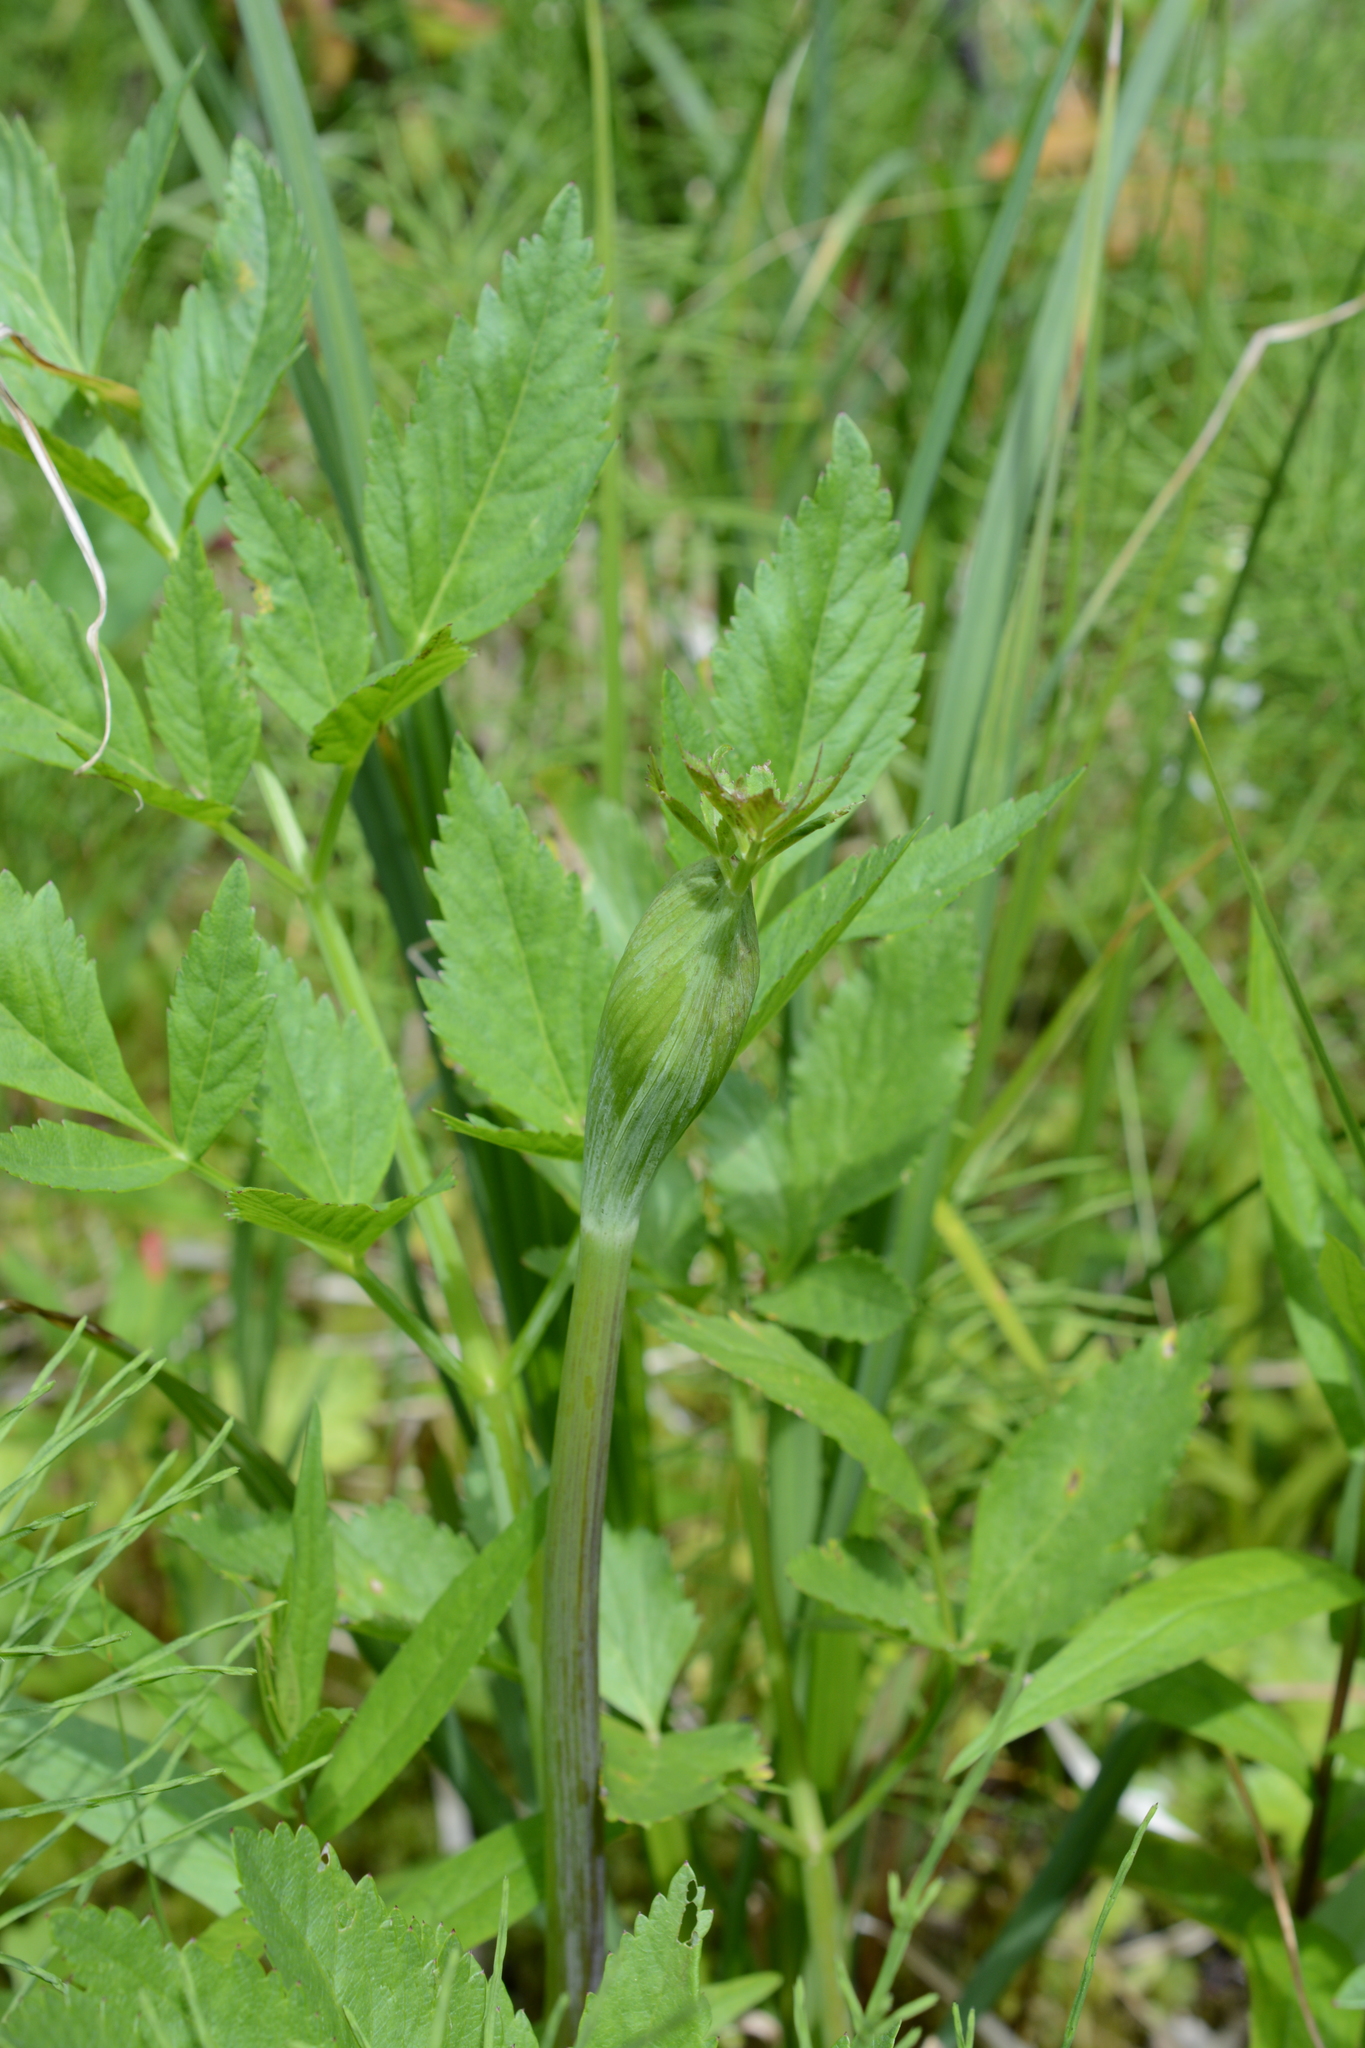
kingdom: Plantae
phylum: Tracheophyta
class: Magnoliopsida
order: Apiales
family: Apiaceae
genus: Angelica
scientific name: Angelica arguta
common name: Lyall's angelica
